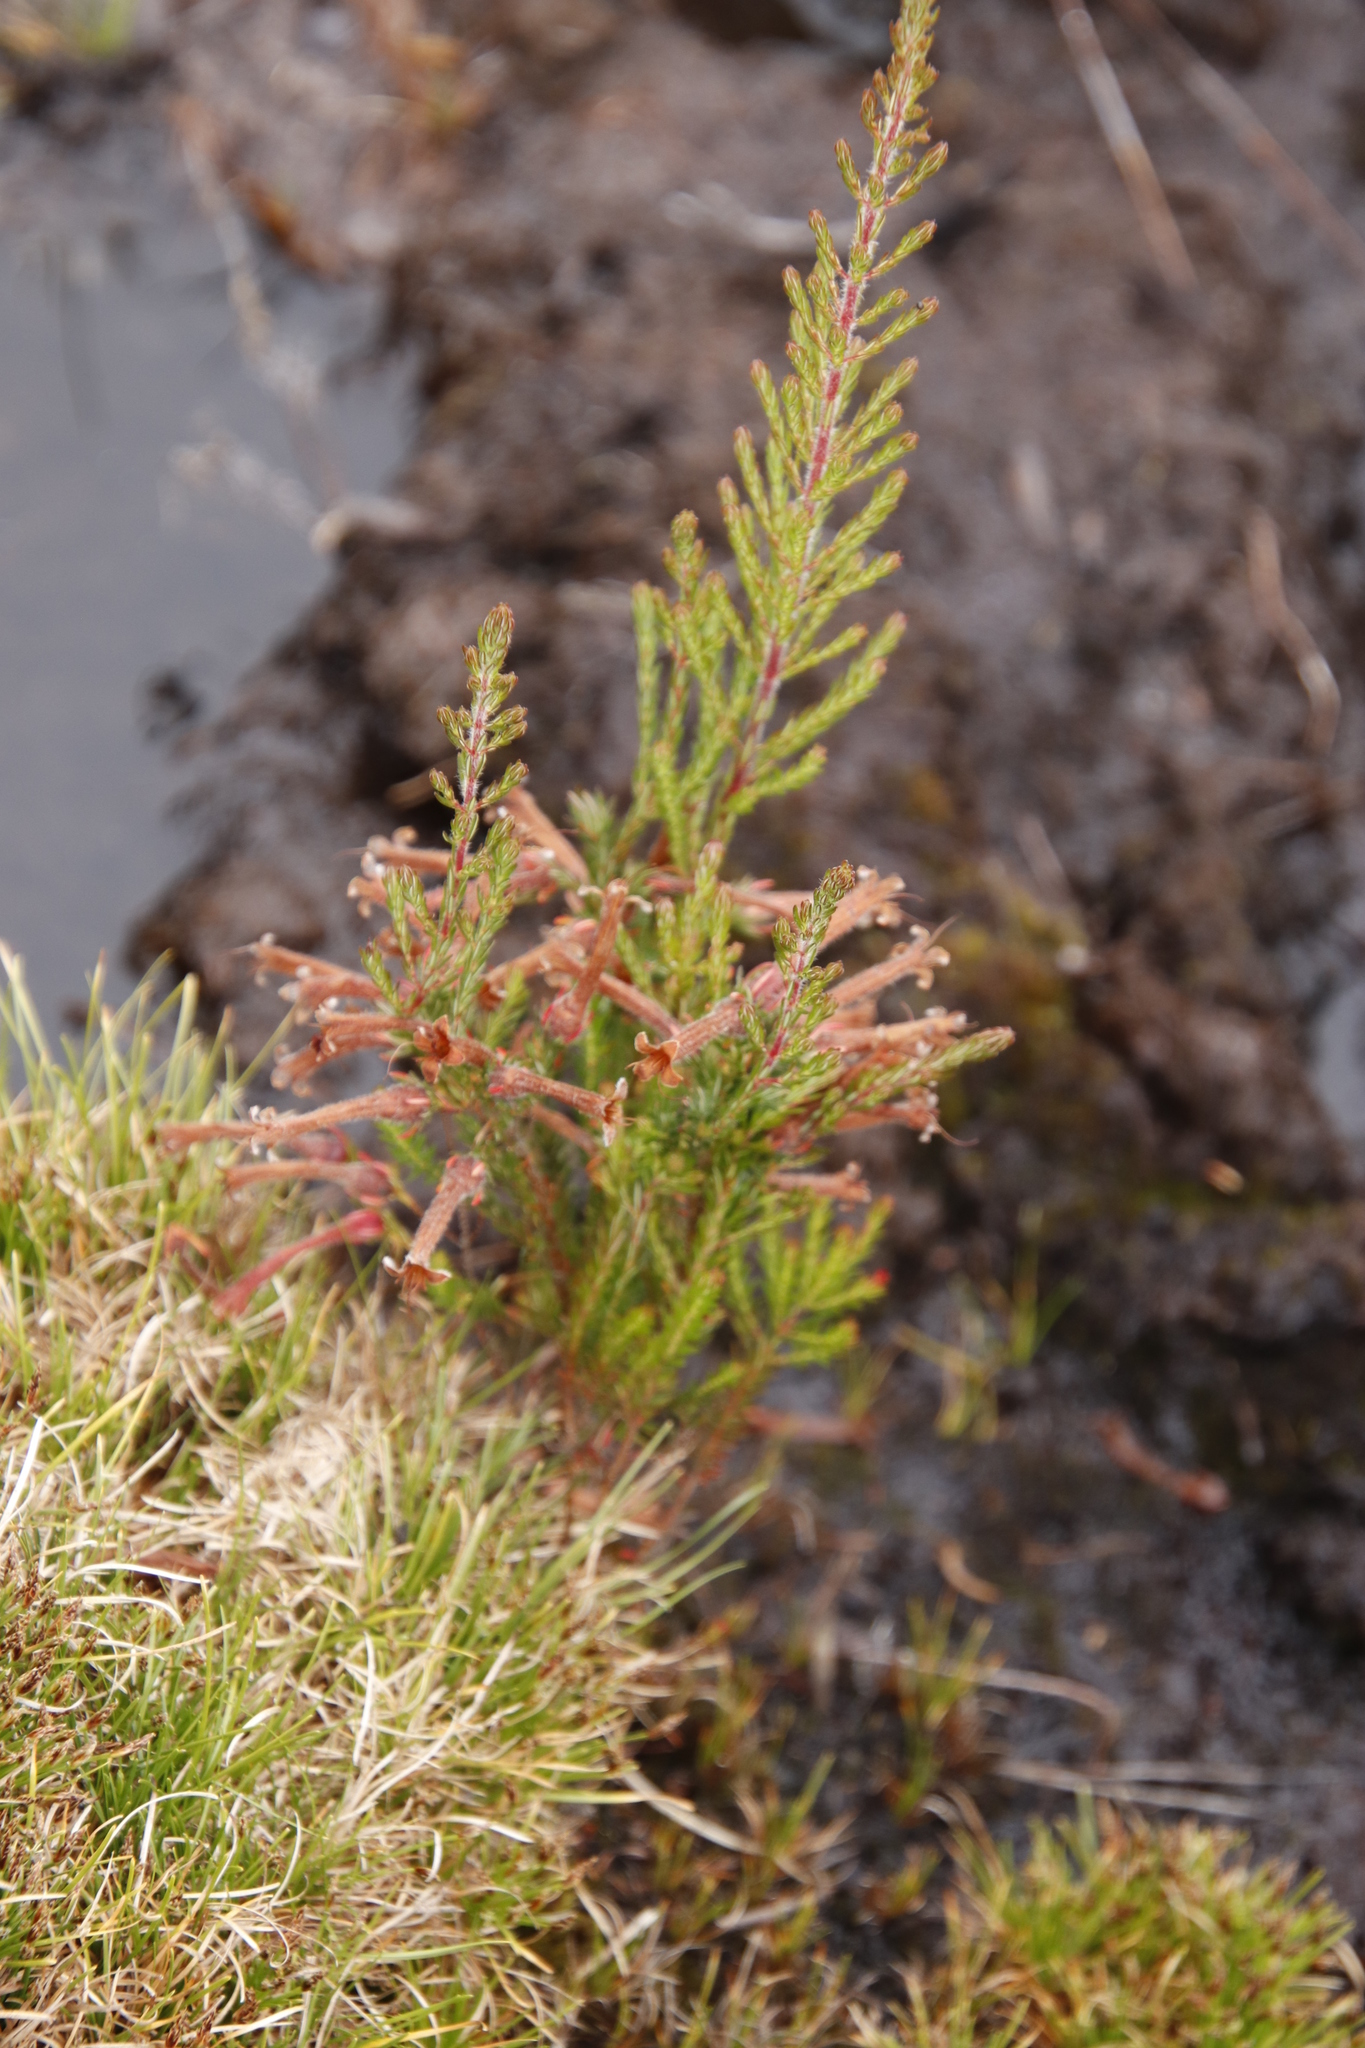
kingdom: Plantae
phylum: Tracheophyta
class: Magnoliopsida
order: Ericales
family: Ericaceae
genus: Erica
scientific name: Erica curviflora
